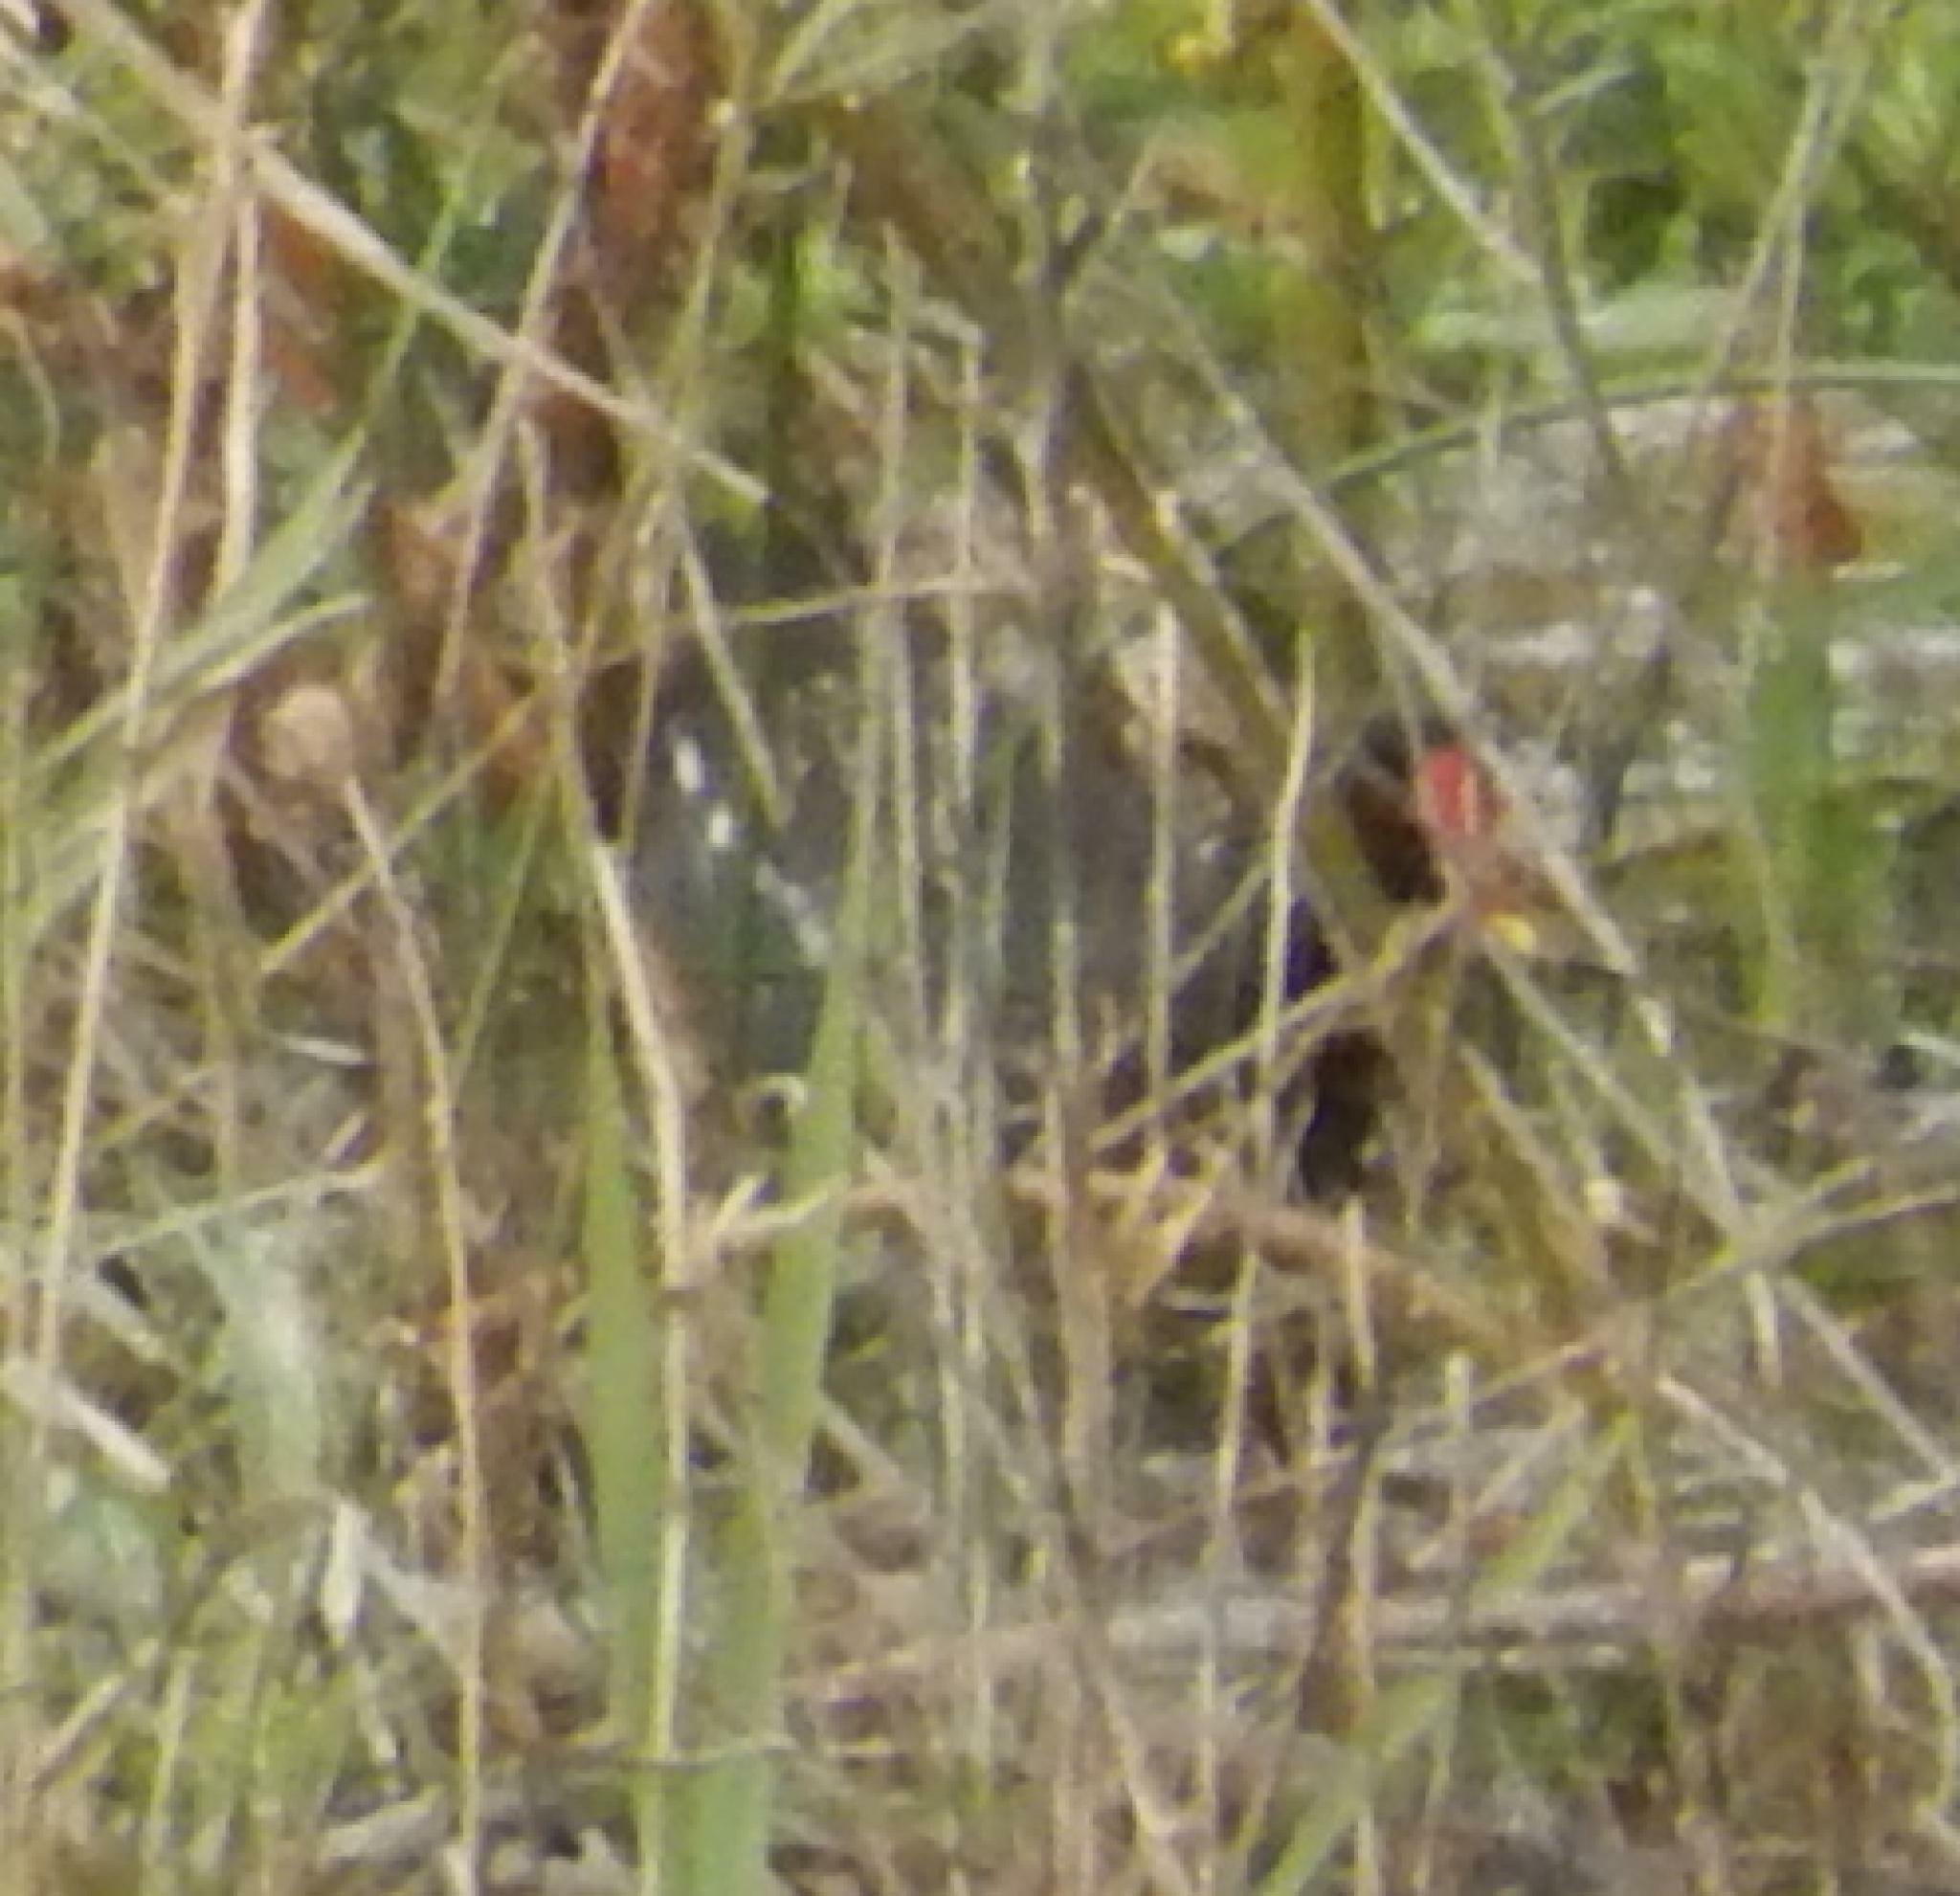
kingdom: Animalia
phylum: Chordata
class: Aves
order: Gruiformes
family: Rallidae
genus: Gallinula
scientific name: Gallinula chloropus
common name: Common moorhen
